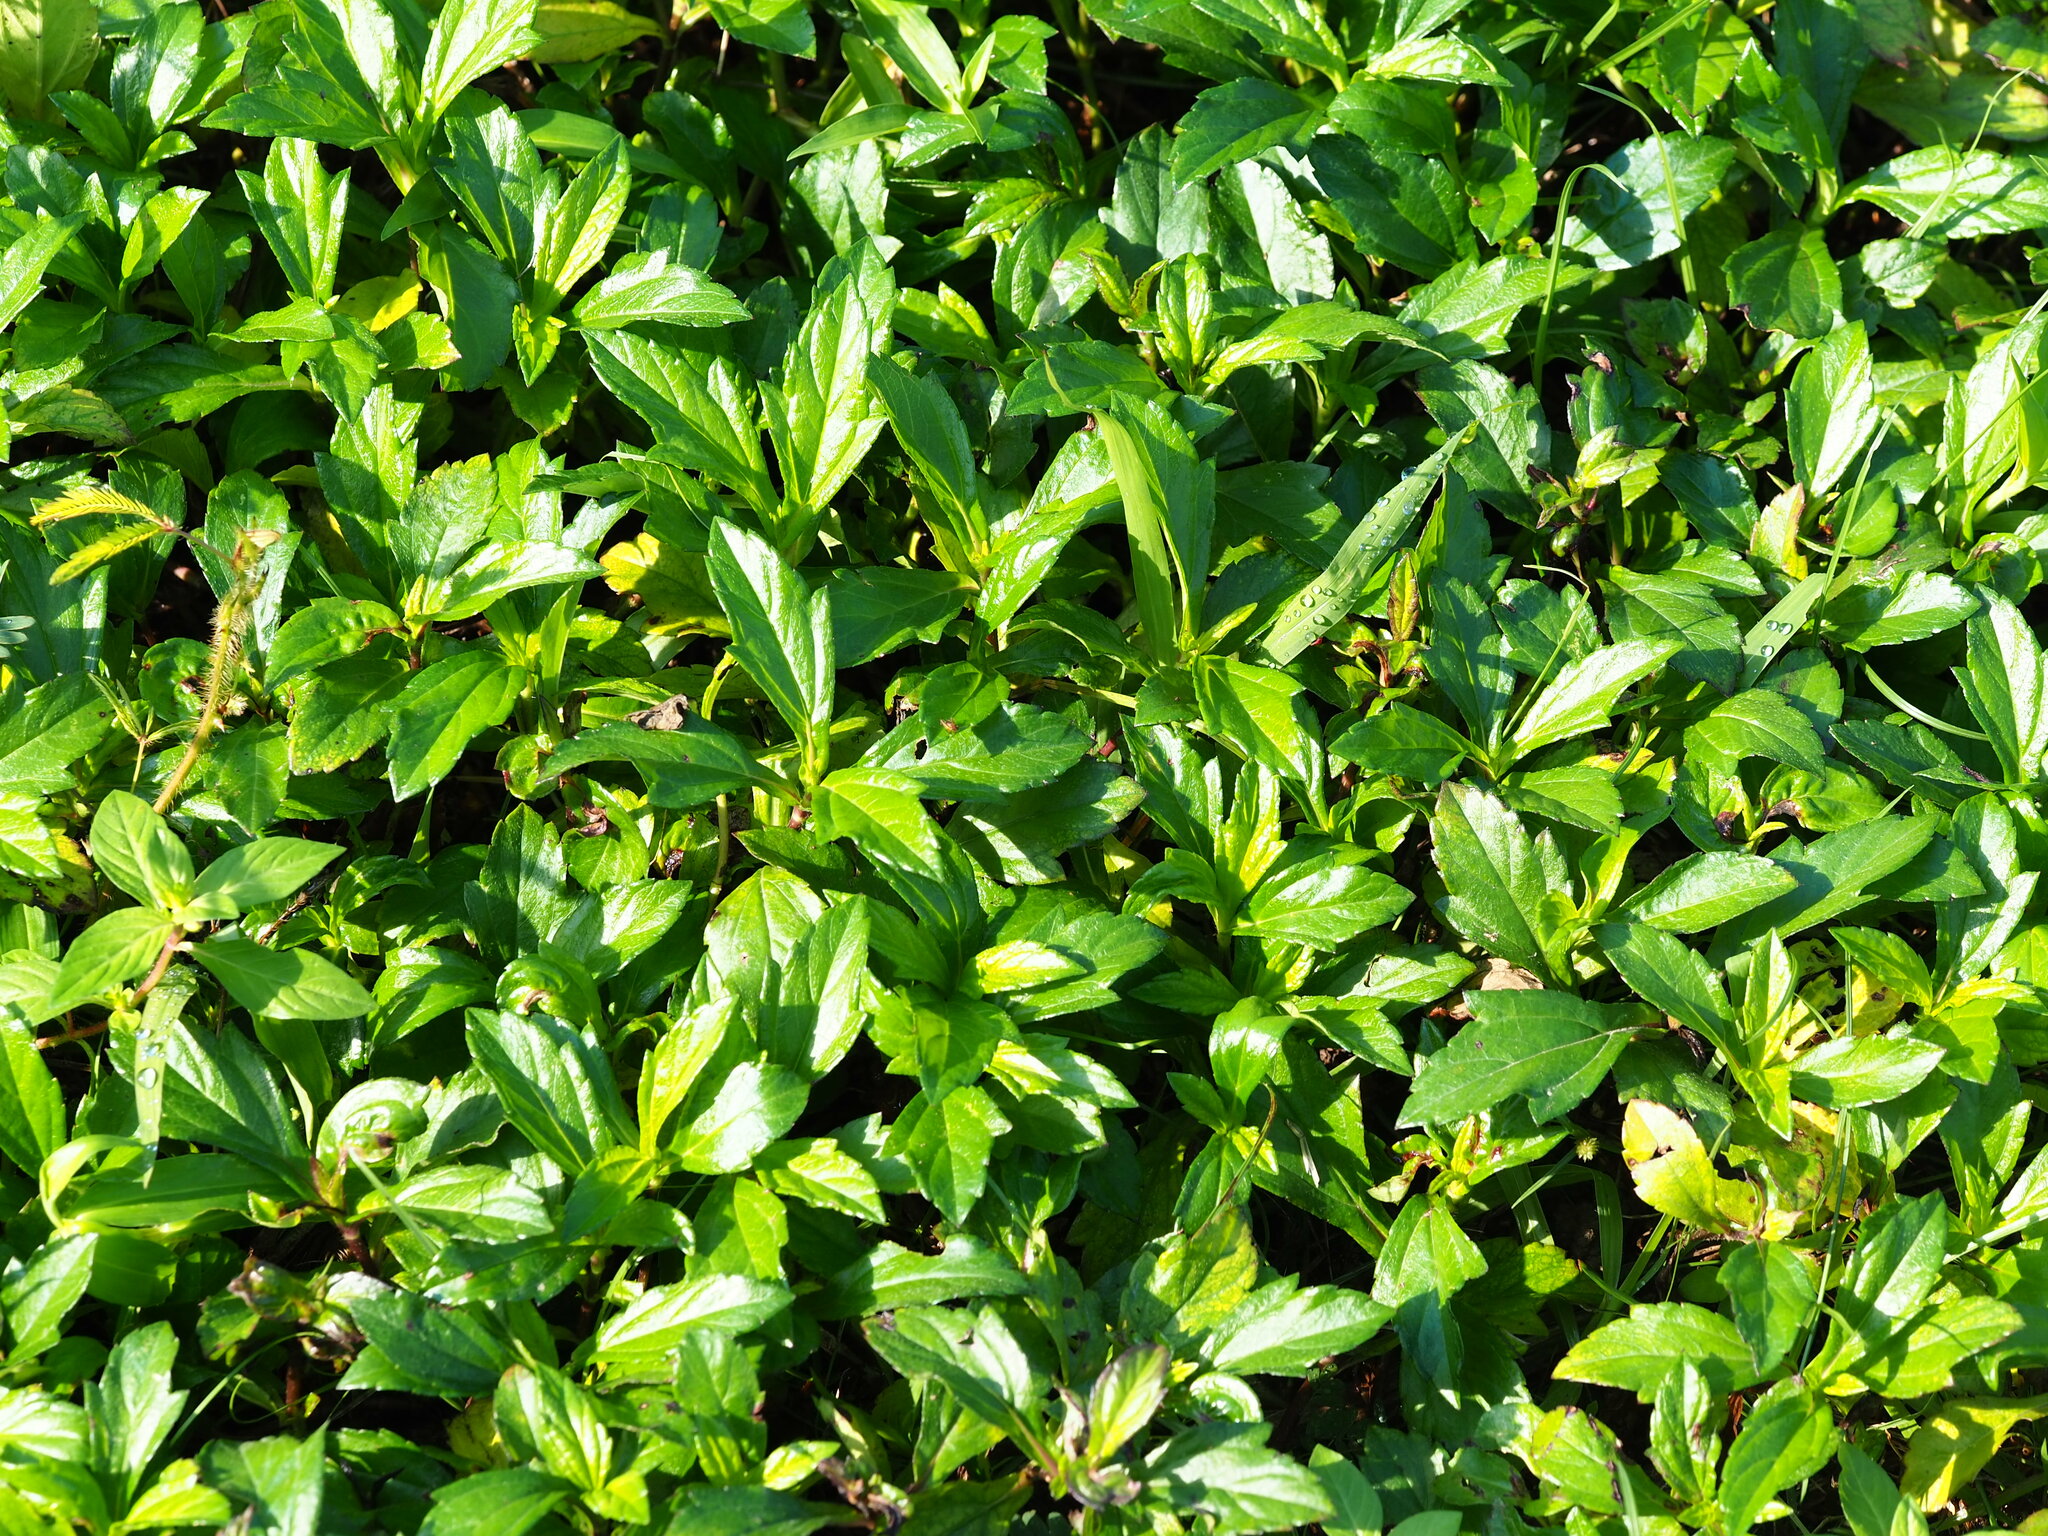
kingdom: Plantae
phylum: Tracheophyta
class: Magnoliopsida
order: Asterales
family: Asteraceae
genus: Sphagneticola
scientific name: Sphagneticola trilobata
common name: Bay biscayne creeping-oxeye
